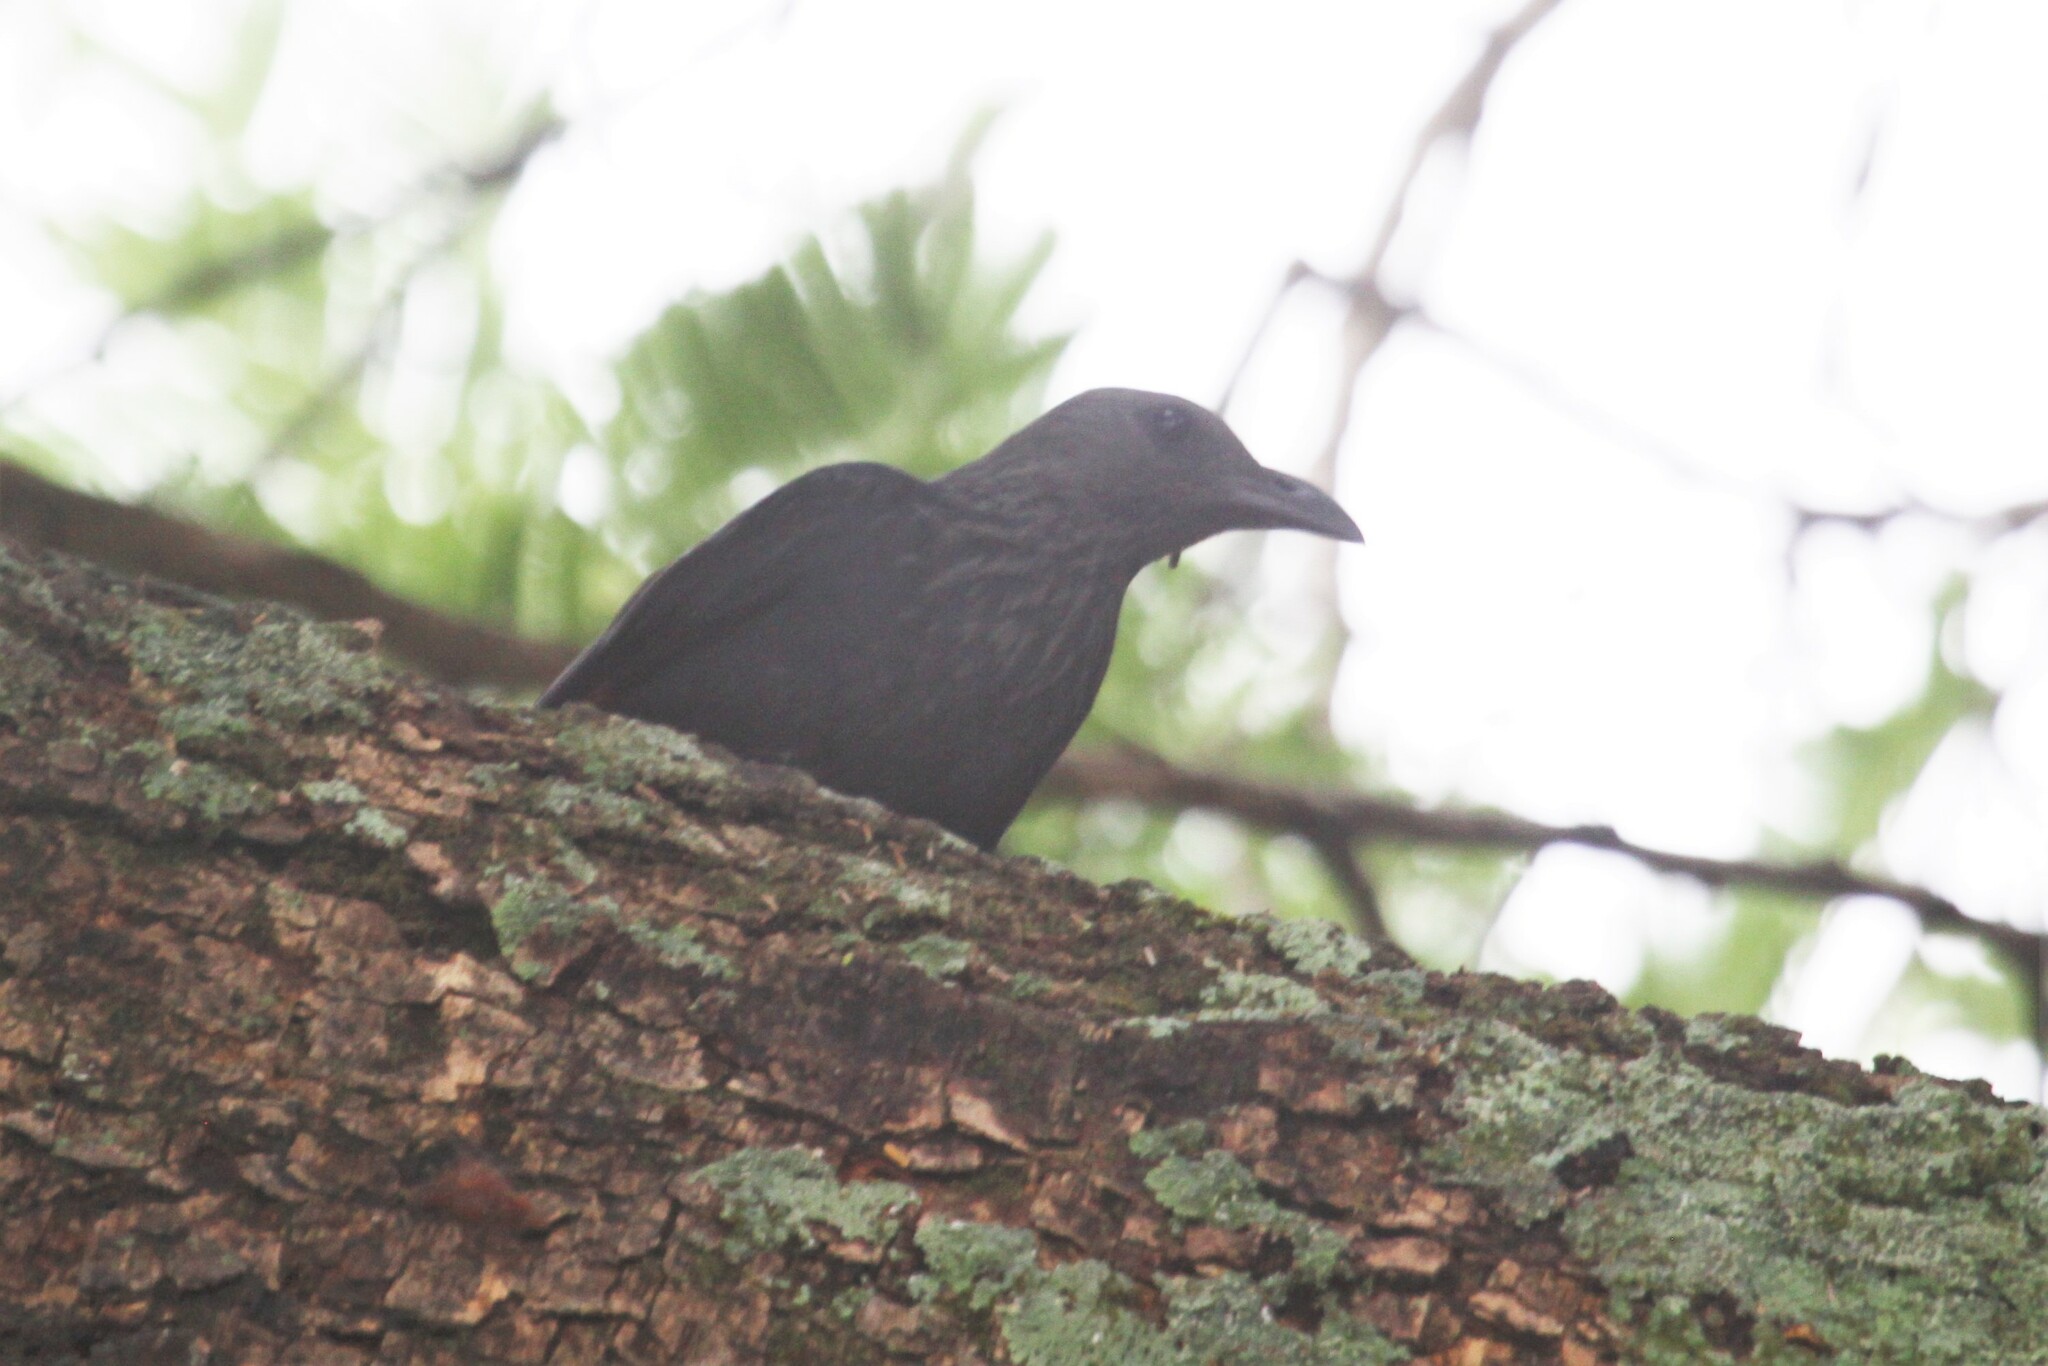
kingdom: Animalia
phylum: Chordata
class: Aves
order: Passeriformes
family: Sturnidae
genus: Onychognathus
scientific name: Onychognathus morio
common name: Red-winged starling
